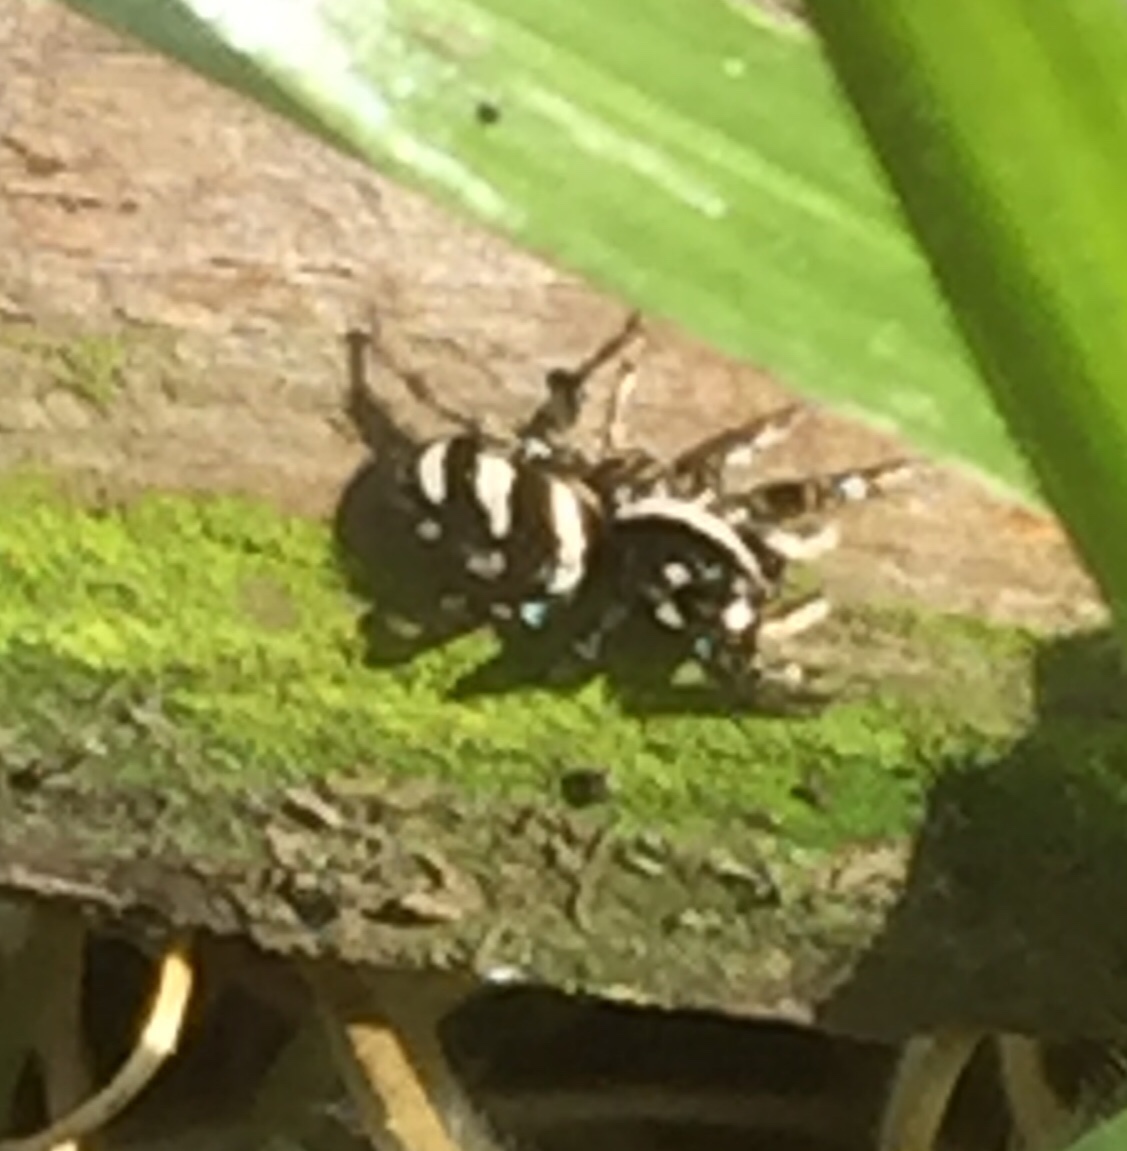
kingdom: Animalia
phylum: Arthropoda
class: Arachnida
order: Araneae
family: Salticidae
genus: Salticus
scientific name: Salticus scenicus
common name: Zebra jumper
